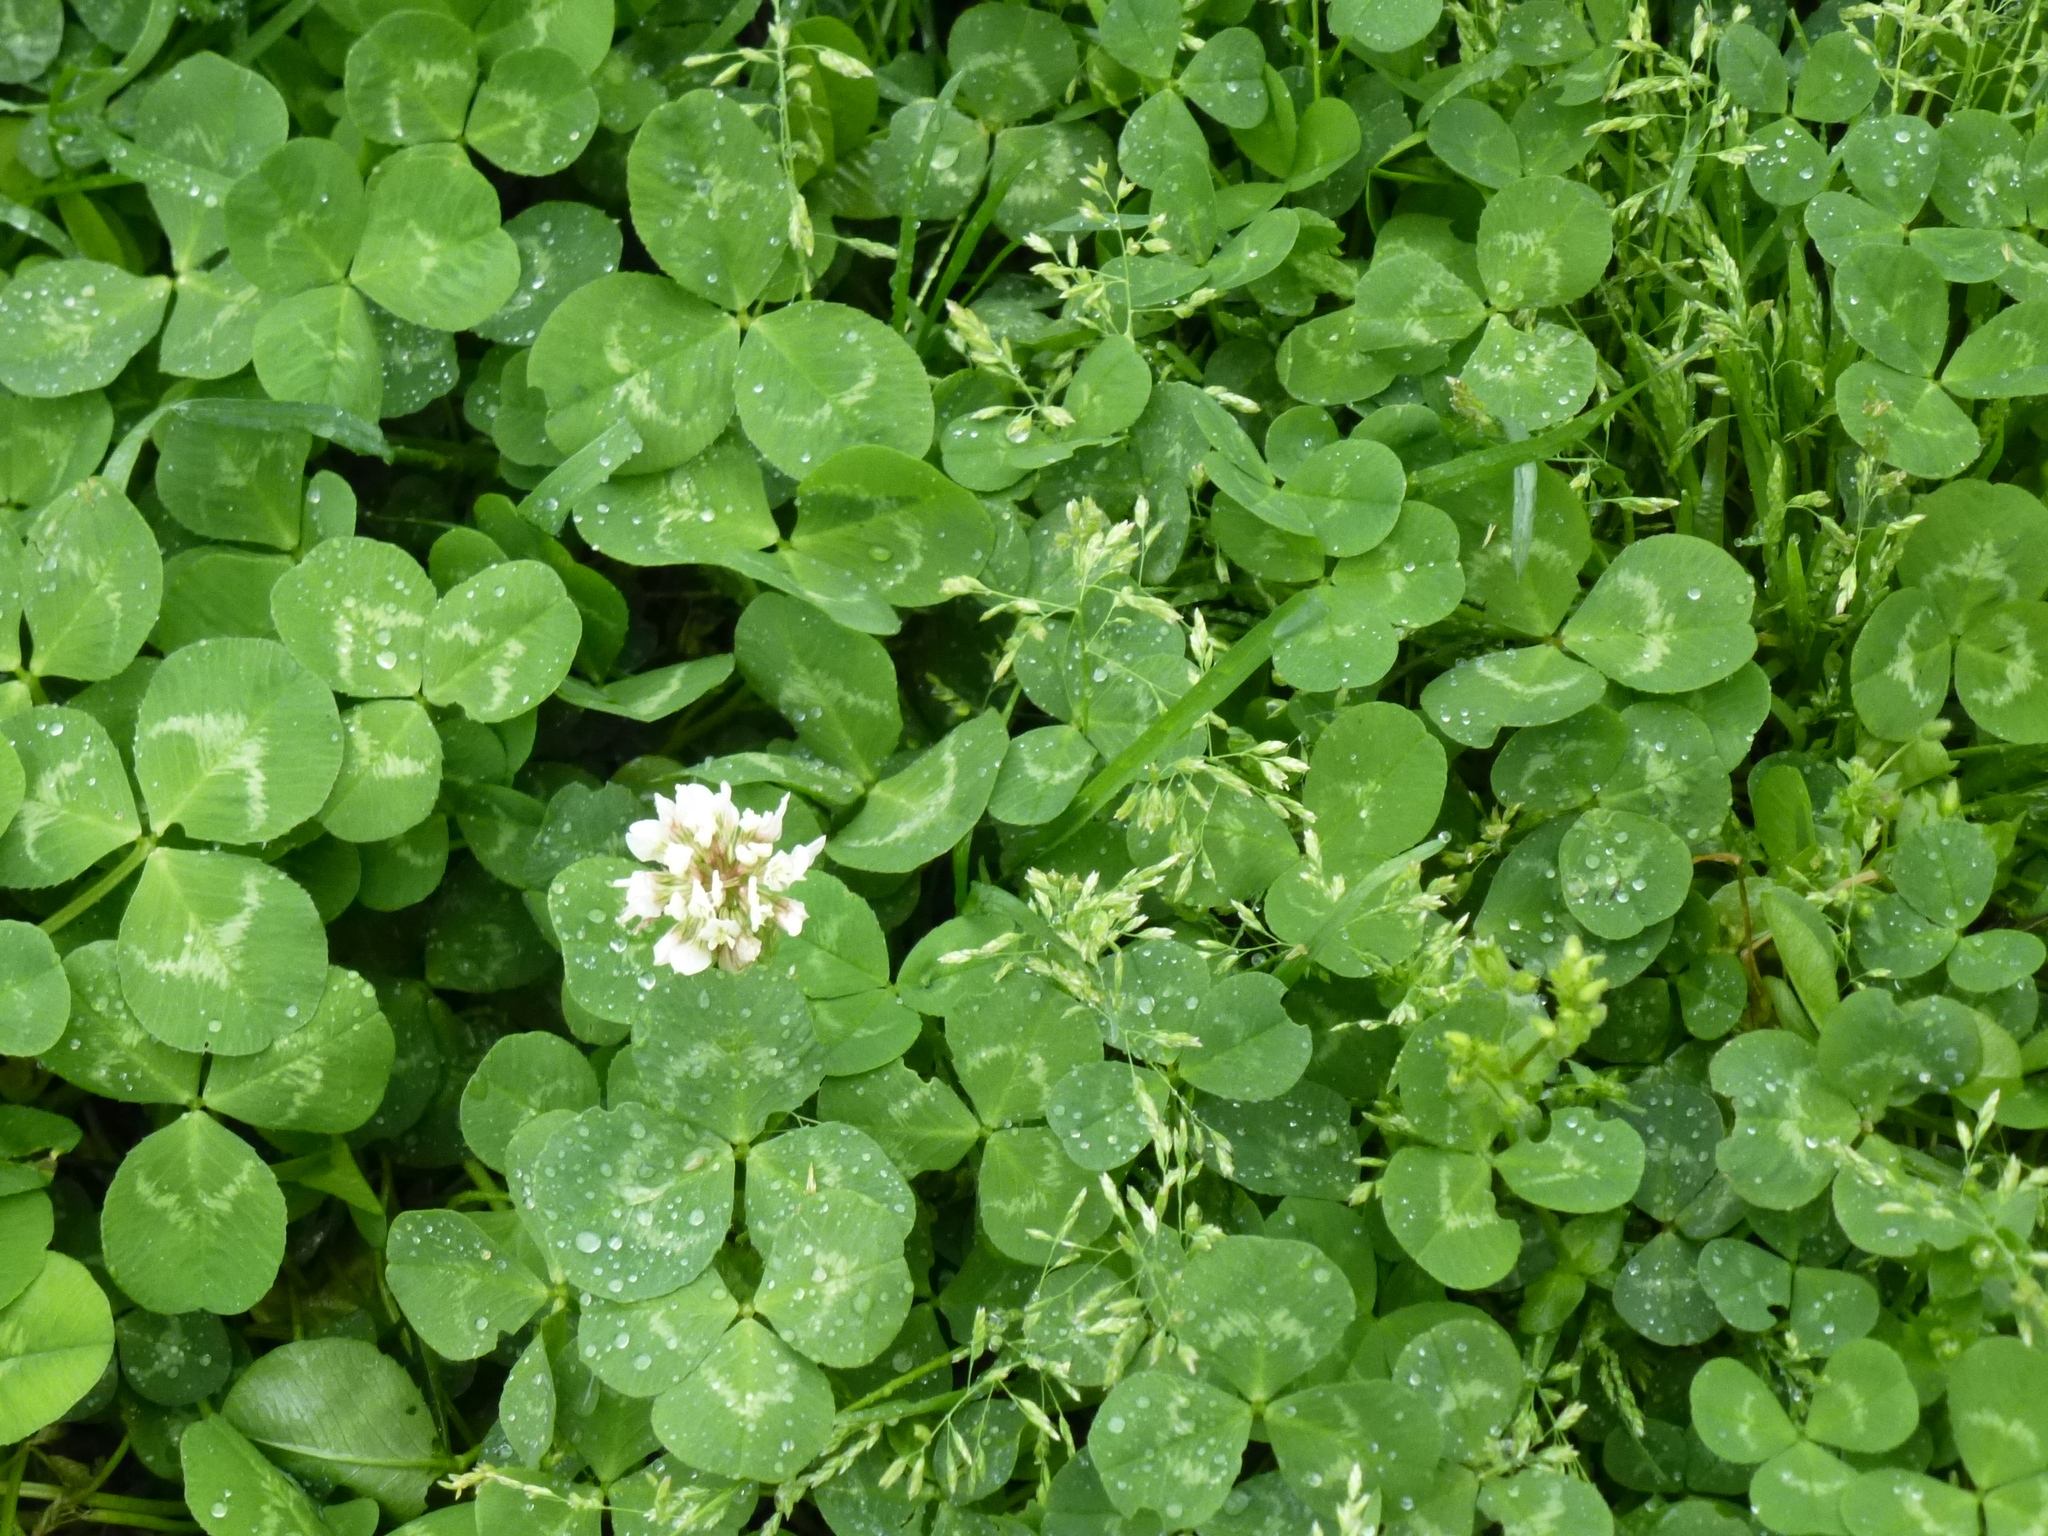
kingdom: Plantae
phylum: Tracheophyta
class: Magnoliopsida
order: Fabales
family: Fabaceae
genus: Trifolium
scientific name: Trifolium repens
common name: White clover
